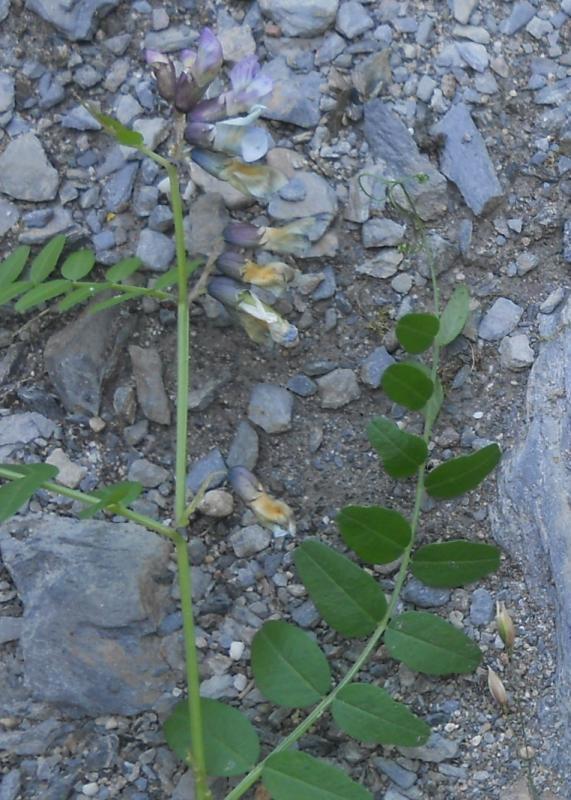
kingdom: Plantae
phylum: Tracheophyta
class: Magnoliopsida
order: Fabales
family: Fabaceae
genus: Vicia
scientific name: Vicia sepium
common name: Bush vetch
